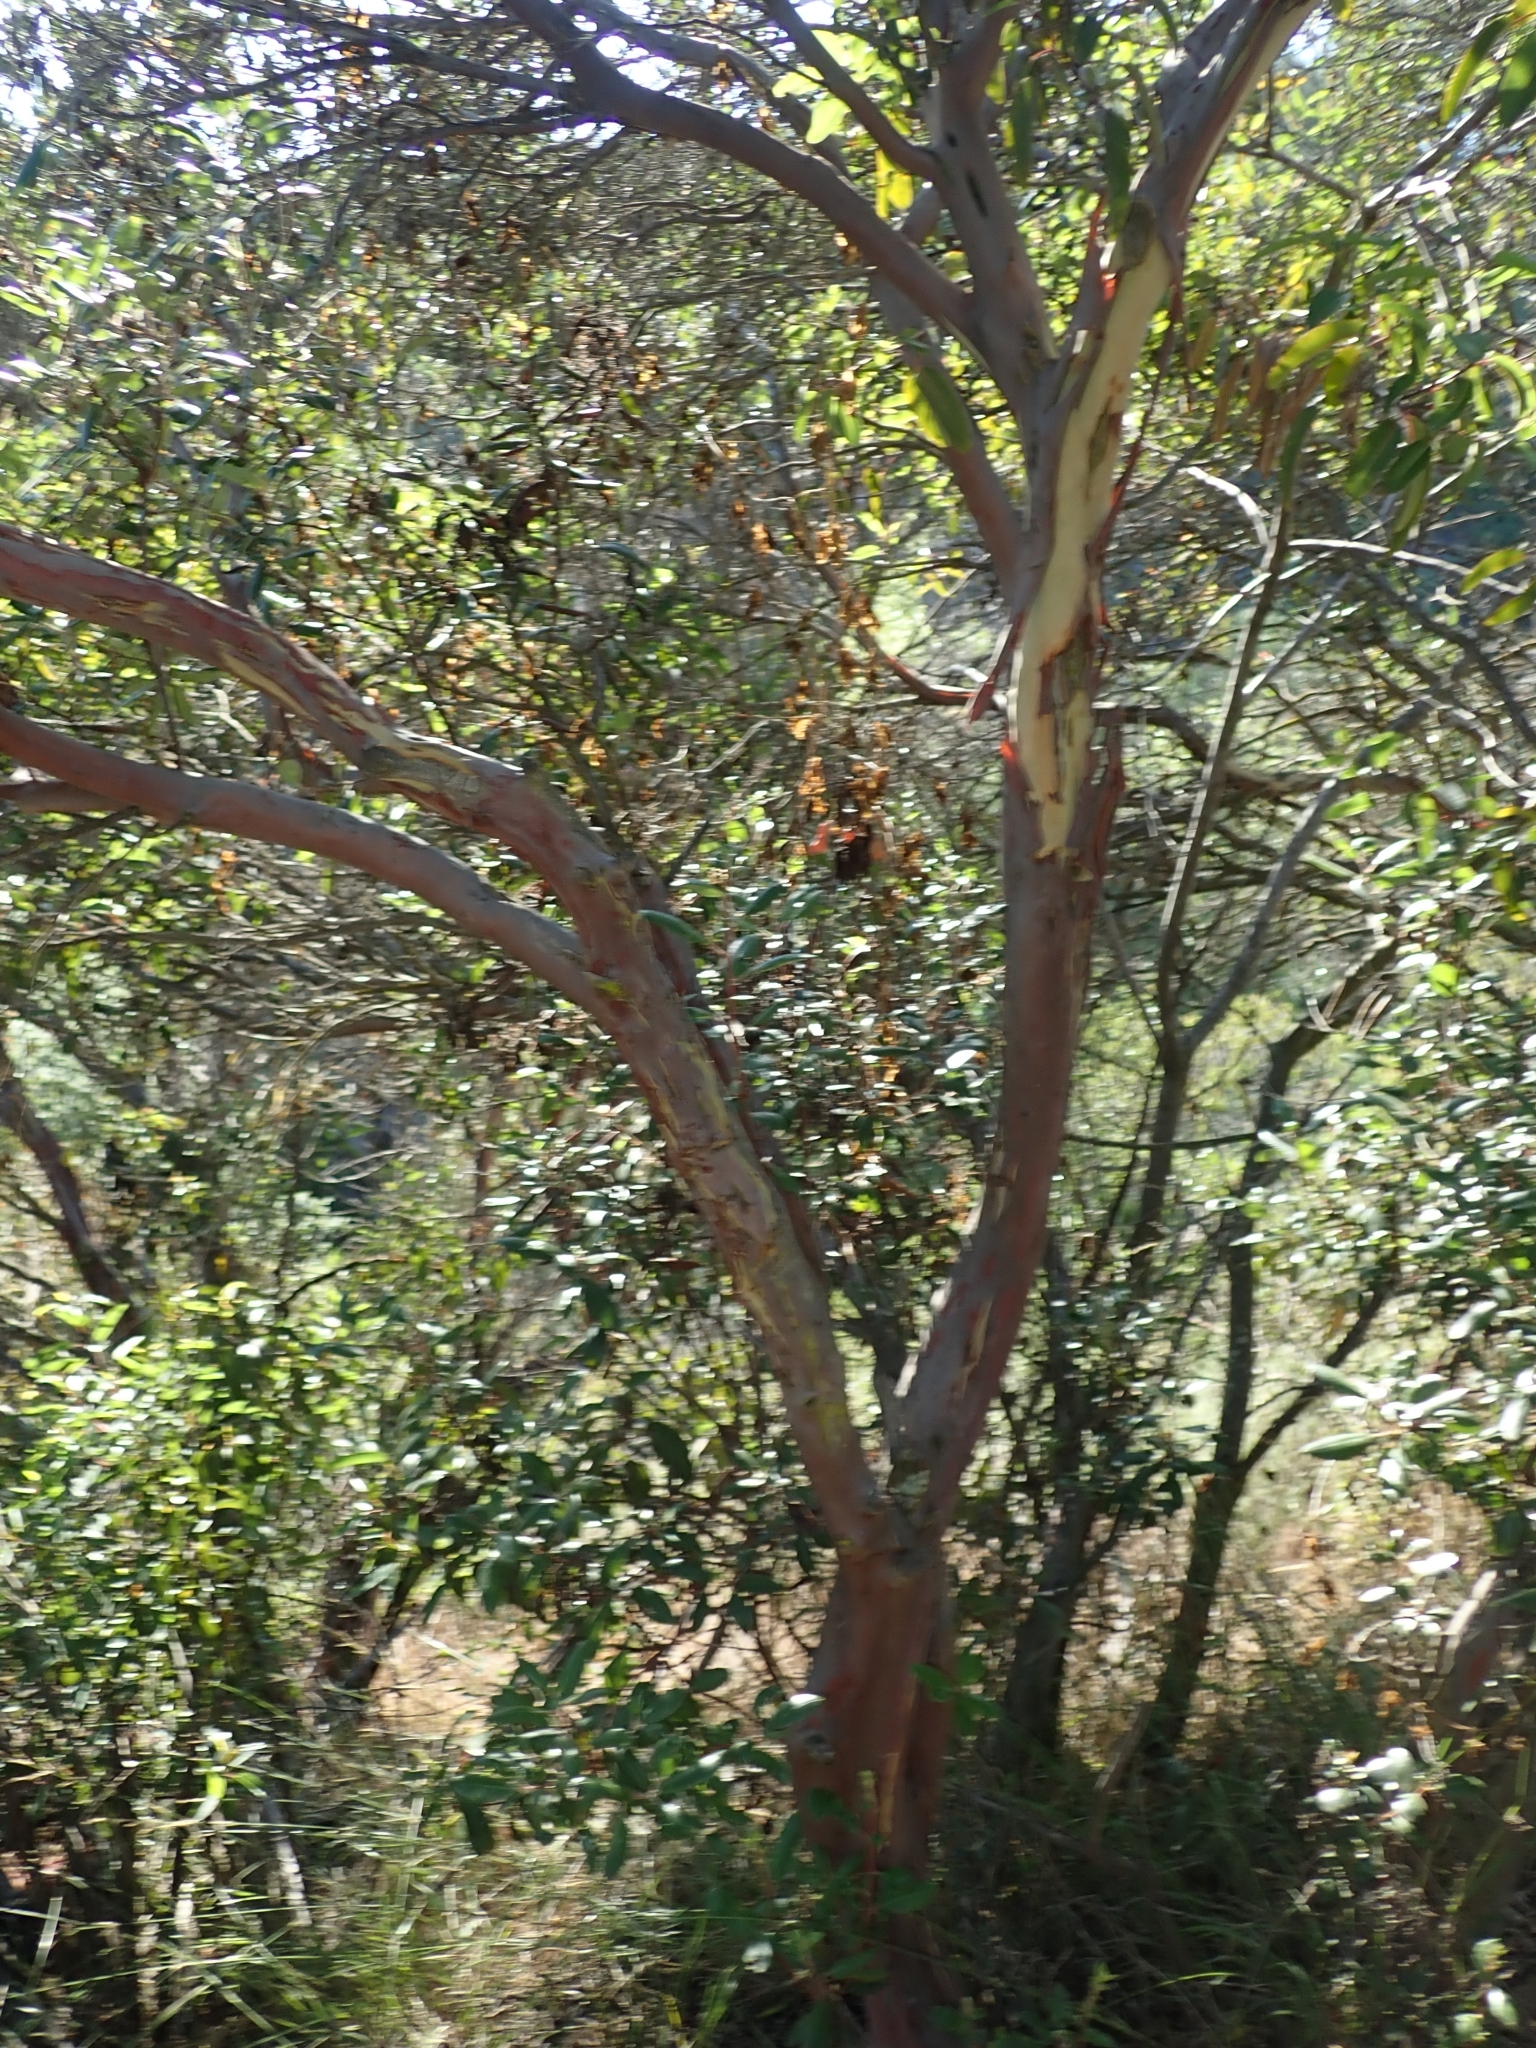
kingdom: Plantae
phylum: Tracheophyta
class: Magnoliopsida
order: Ericales
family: Ericaceae
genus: Arctostaphylos
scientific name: Arctostaphylos bicolor
